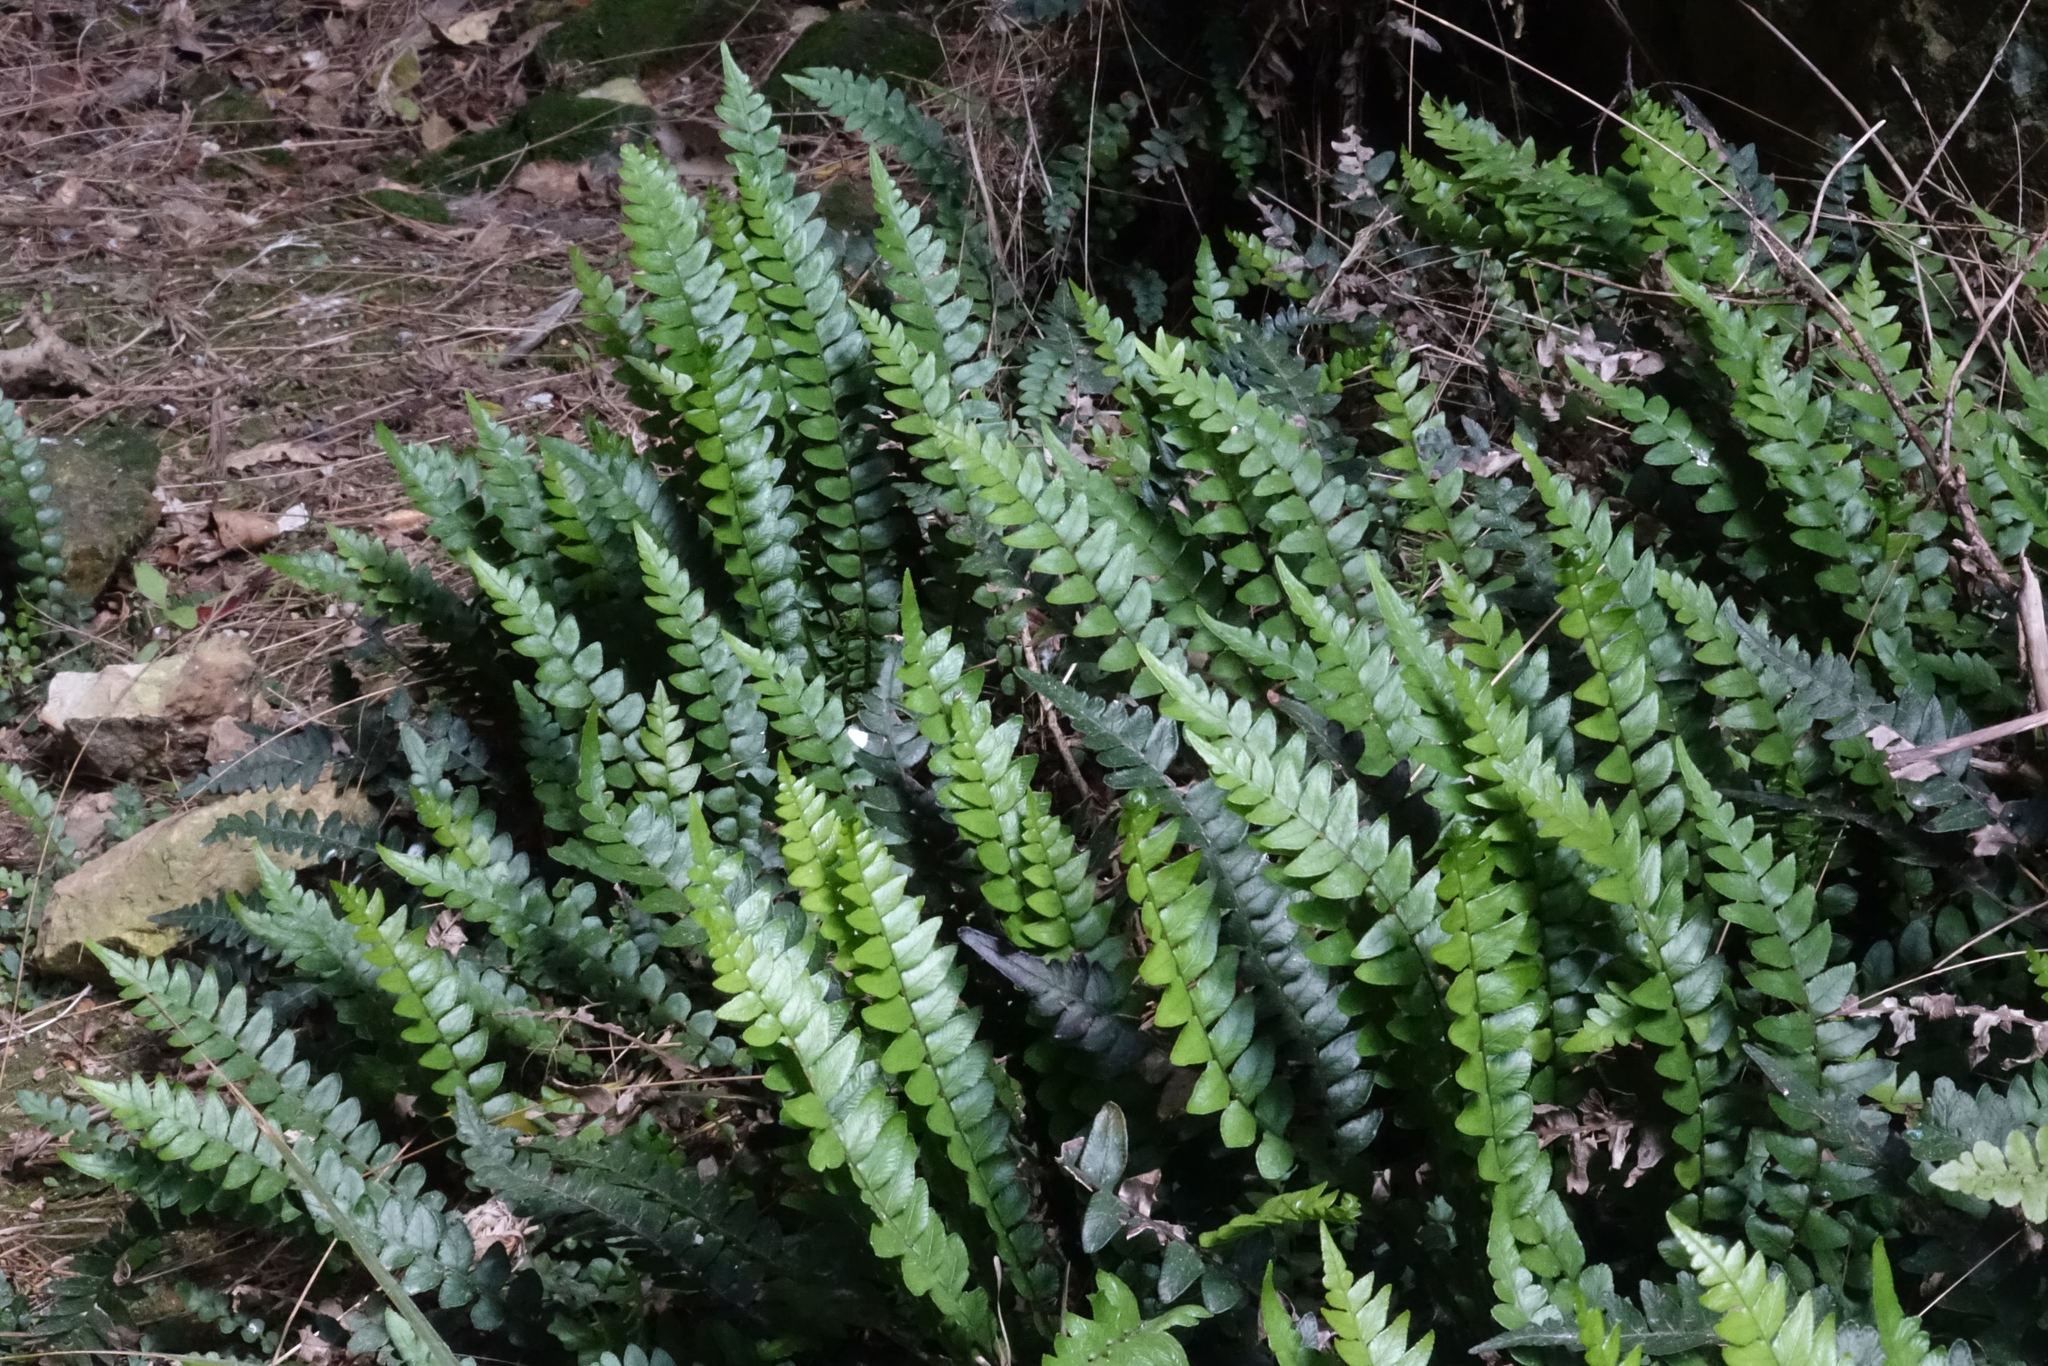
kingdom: Plantae
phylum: Tracheophyta
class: Polypodiopsida
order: Polypodiales
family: Blechnaceae
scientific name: Blechnaceae
